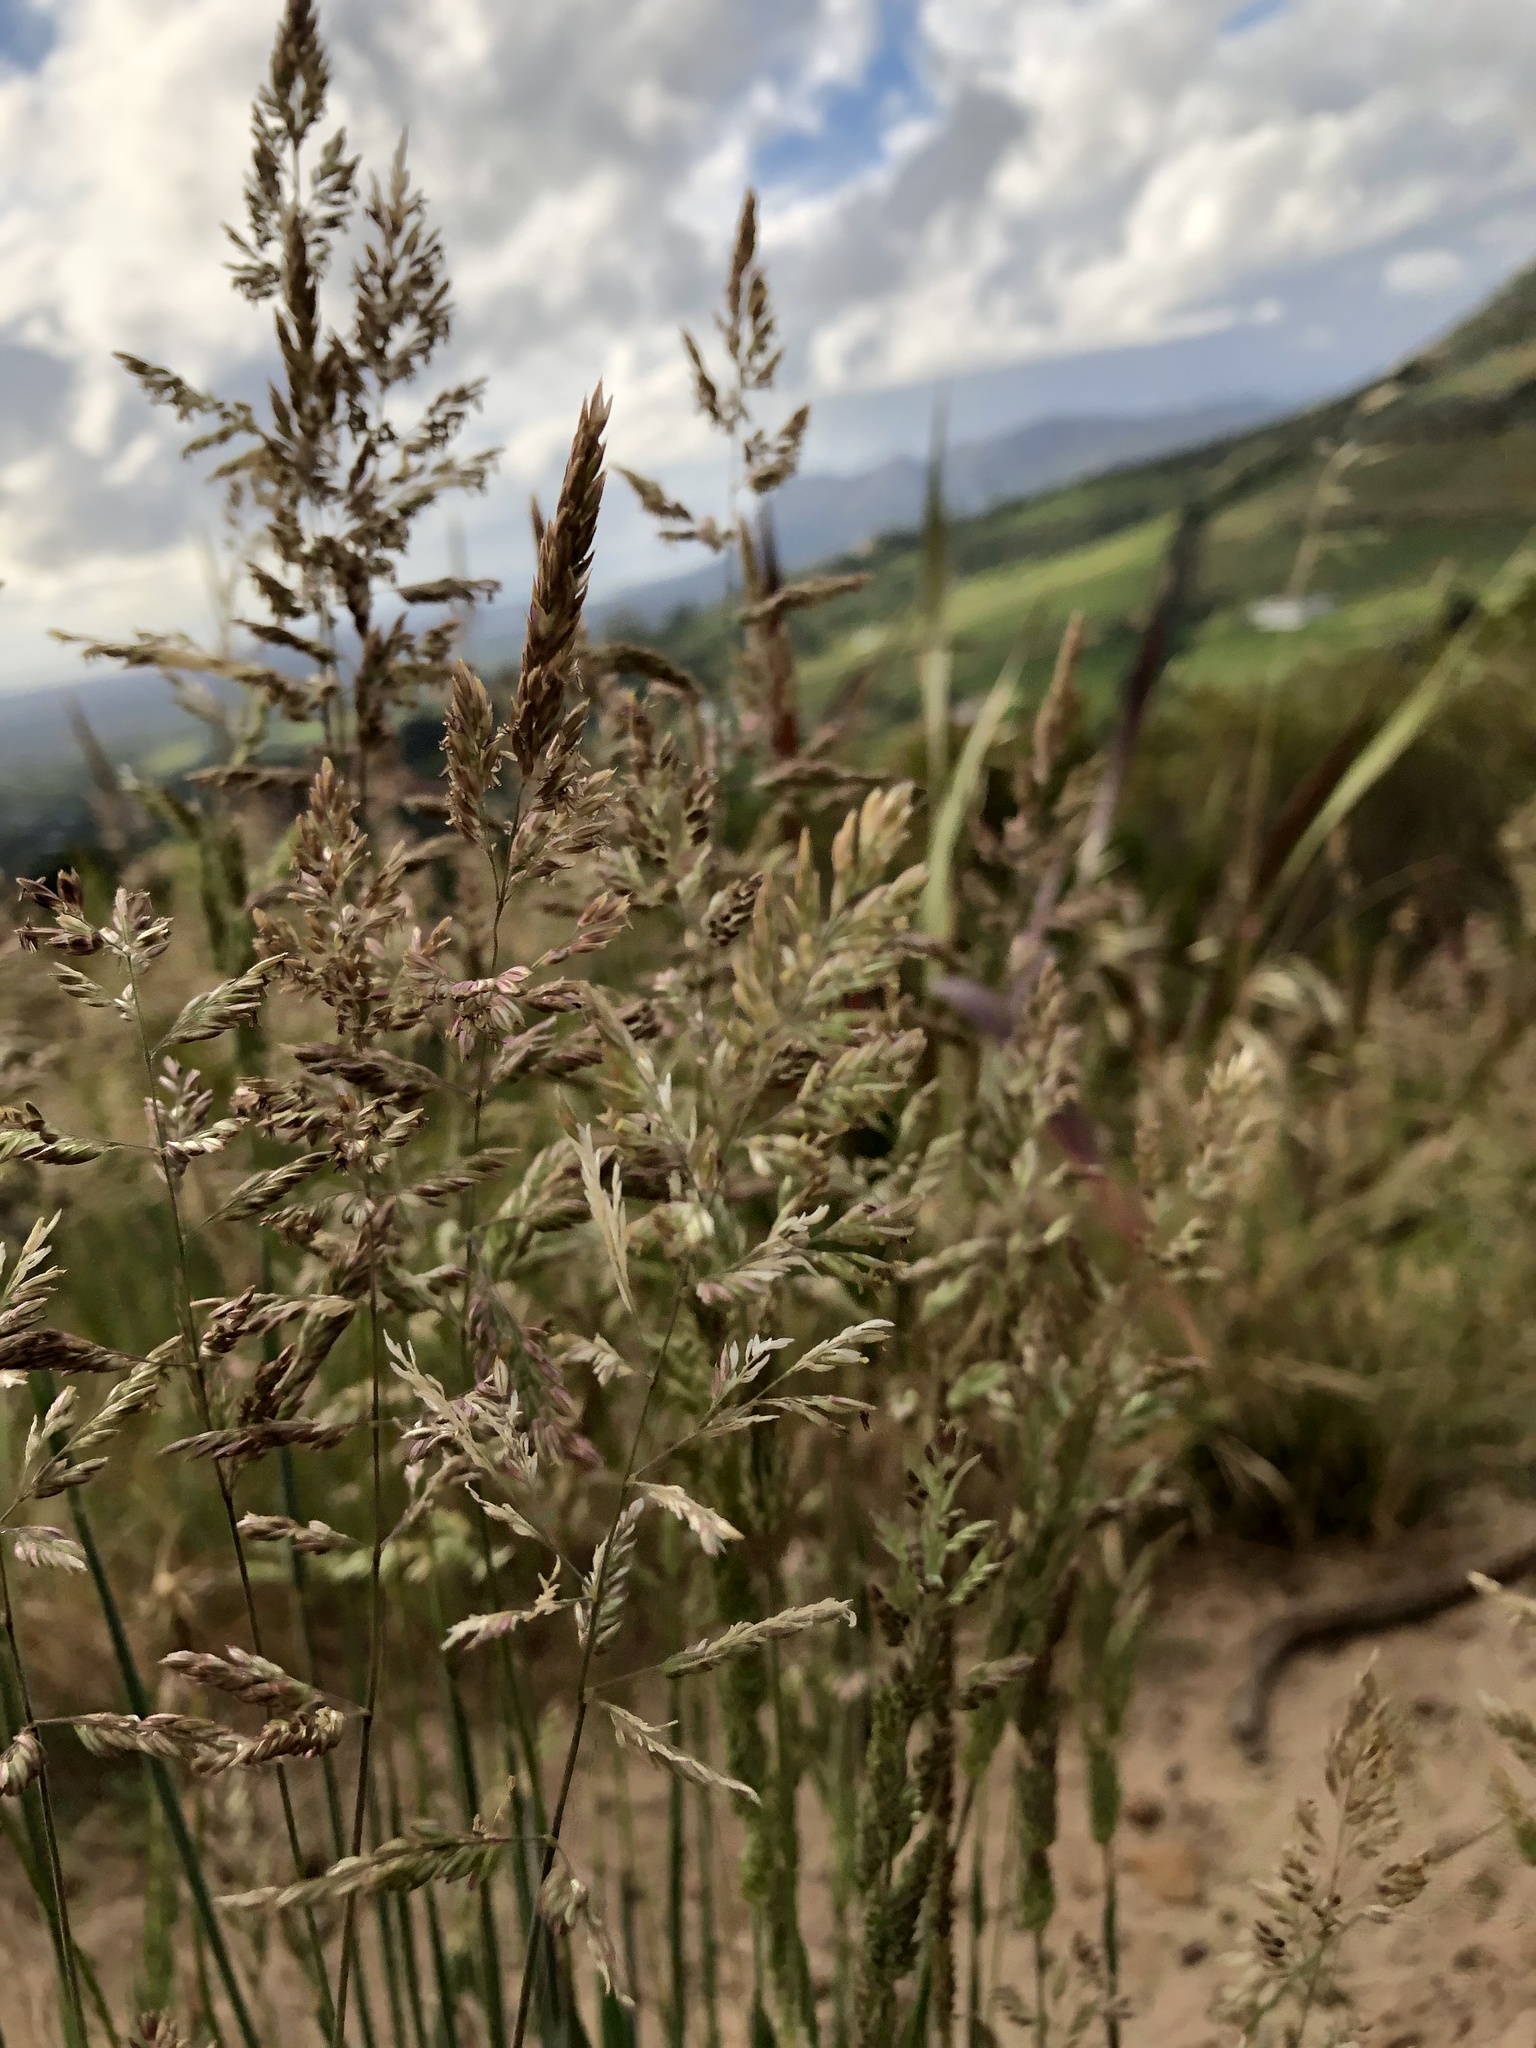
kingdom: Plantae
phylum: Tracheophyta
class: Liliopsida
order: Poales
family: Poaceae
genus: Holcus
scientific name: Holcus lanatus
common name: Yorkshire-fog
